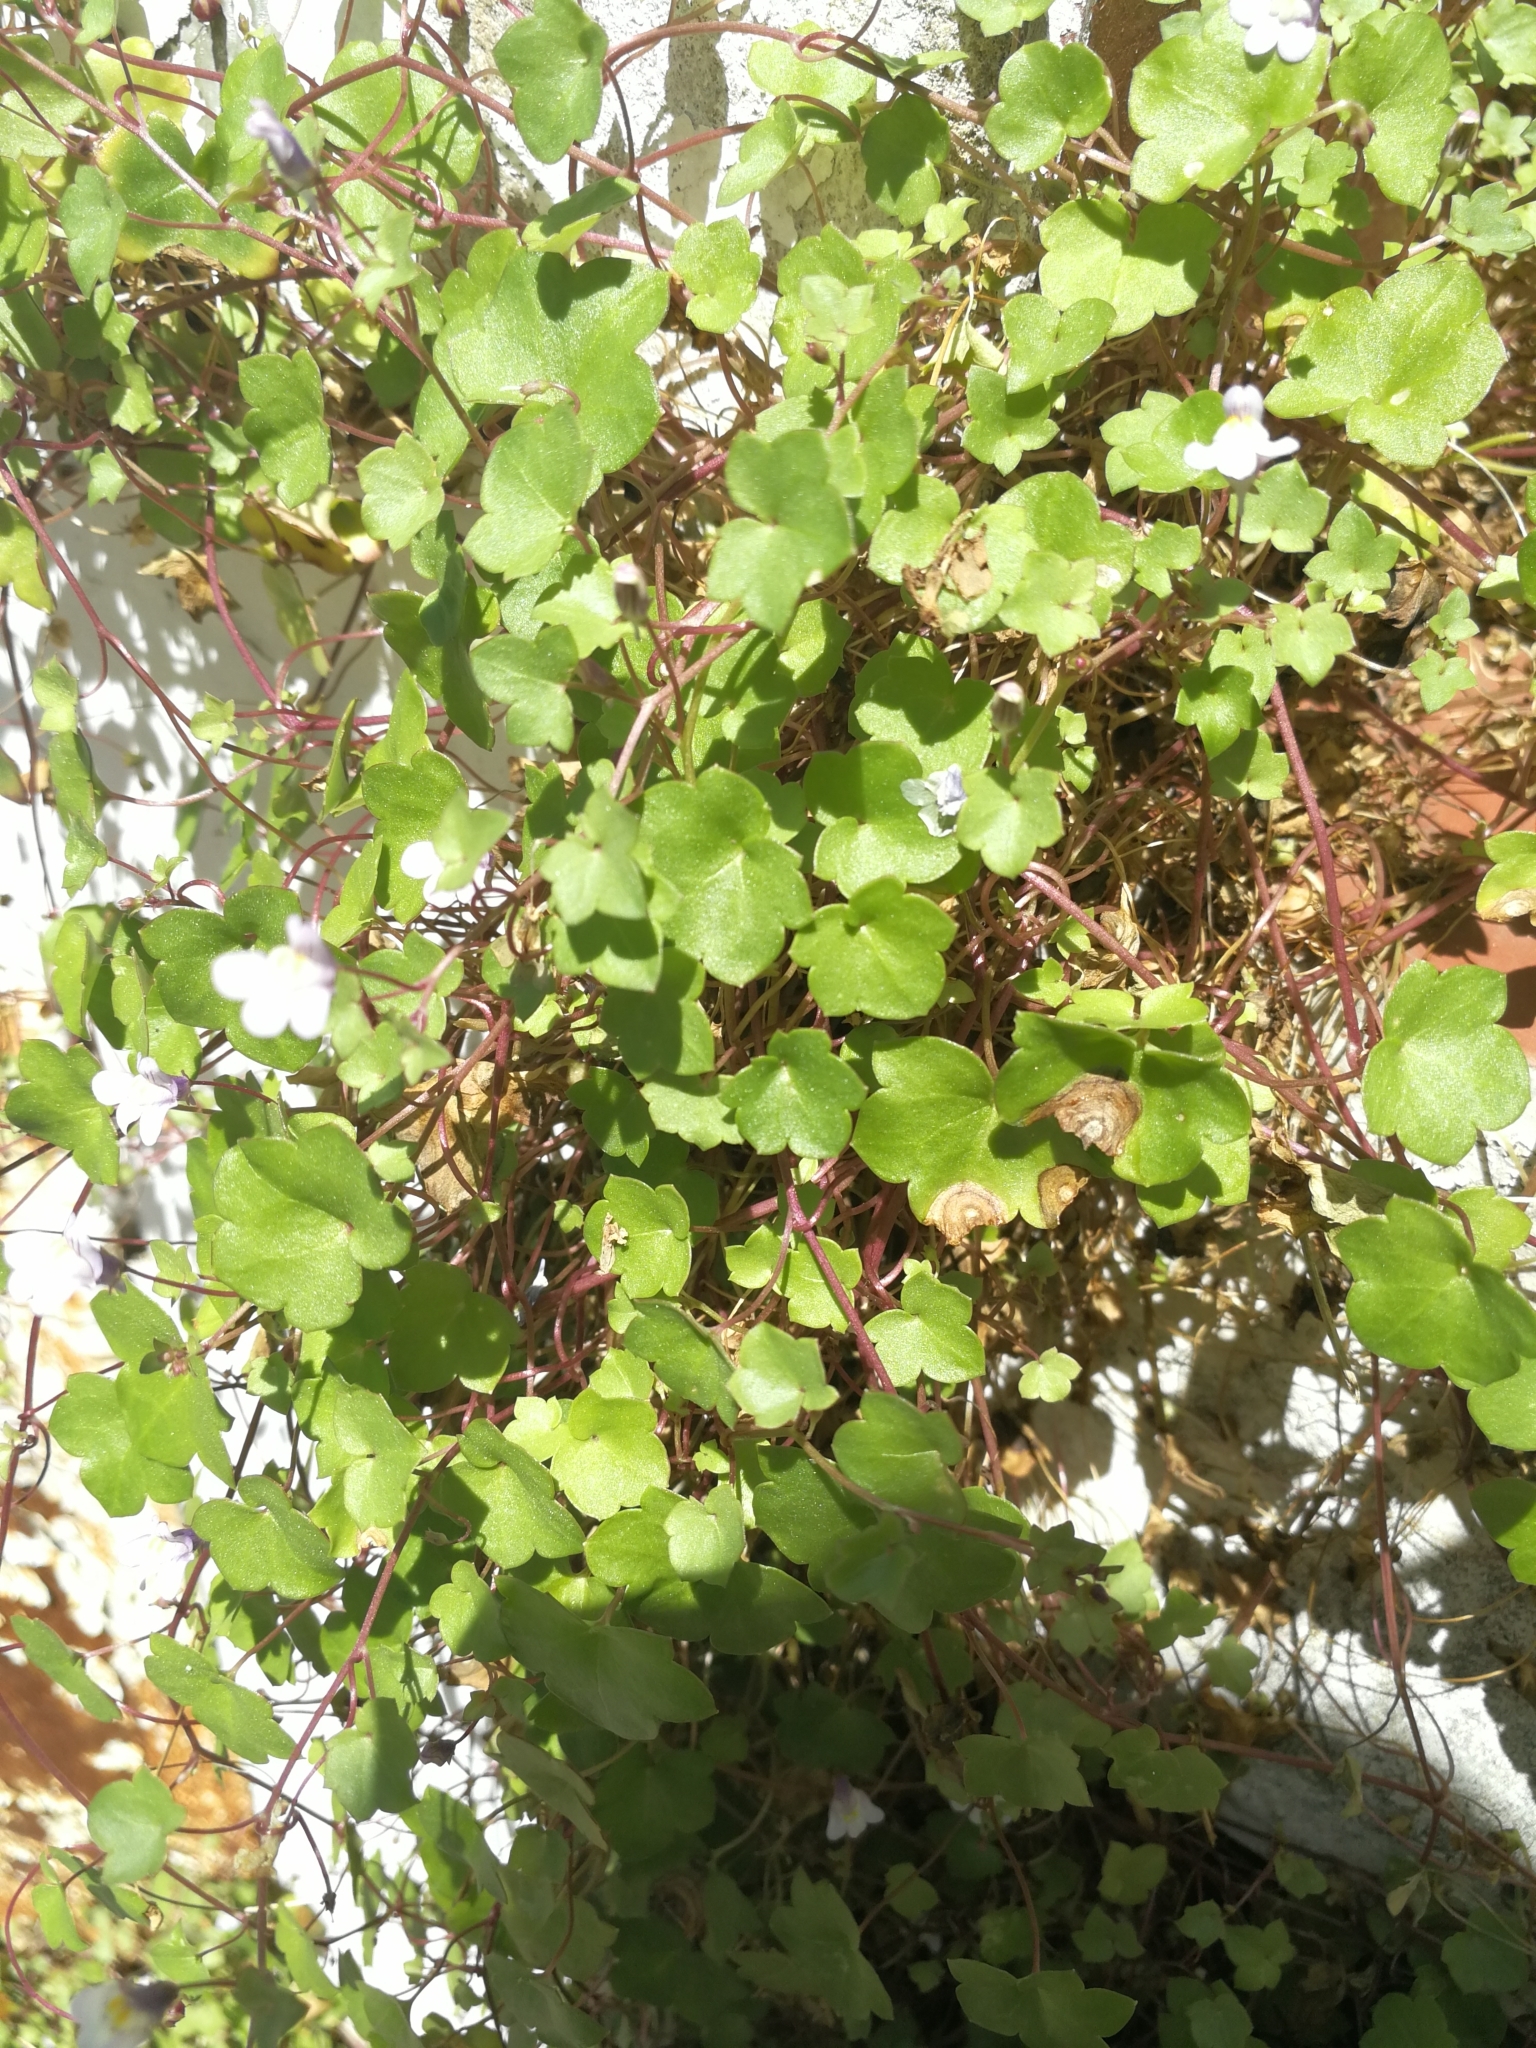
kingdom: Plantae
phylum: Tracheophyta
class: Magnoliopsida
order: Lamiales
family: Plantaginaceae
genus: Cymbalaria
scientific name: Cymbalaria muralis
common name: Ivy-leaved toadflax
